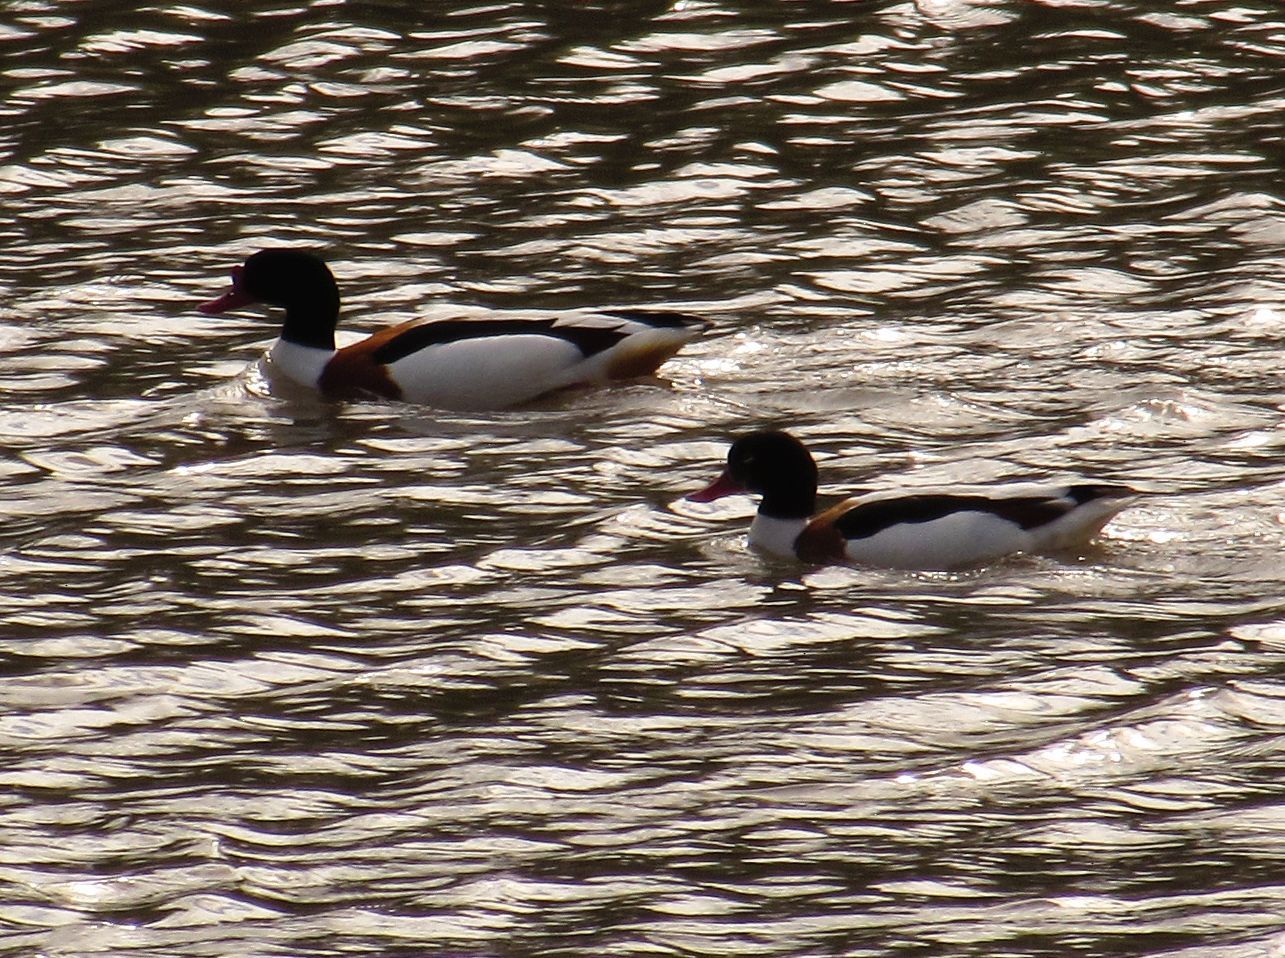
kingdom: Animalia
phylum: Chordata
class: Aves
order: Anseriformes
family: Anatidae
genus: Tadorna
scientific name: Tadorna tadorna
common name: Common shelduck
